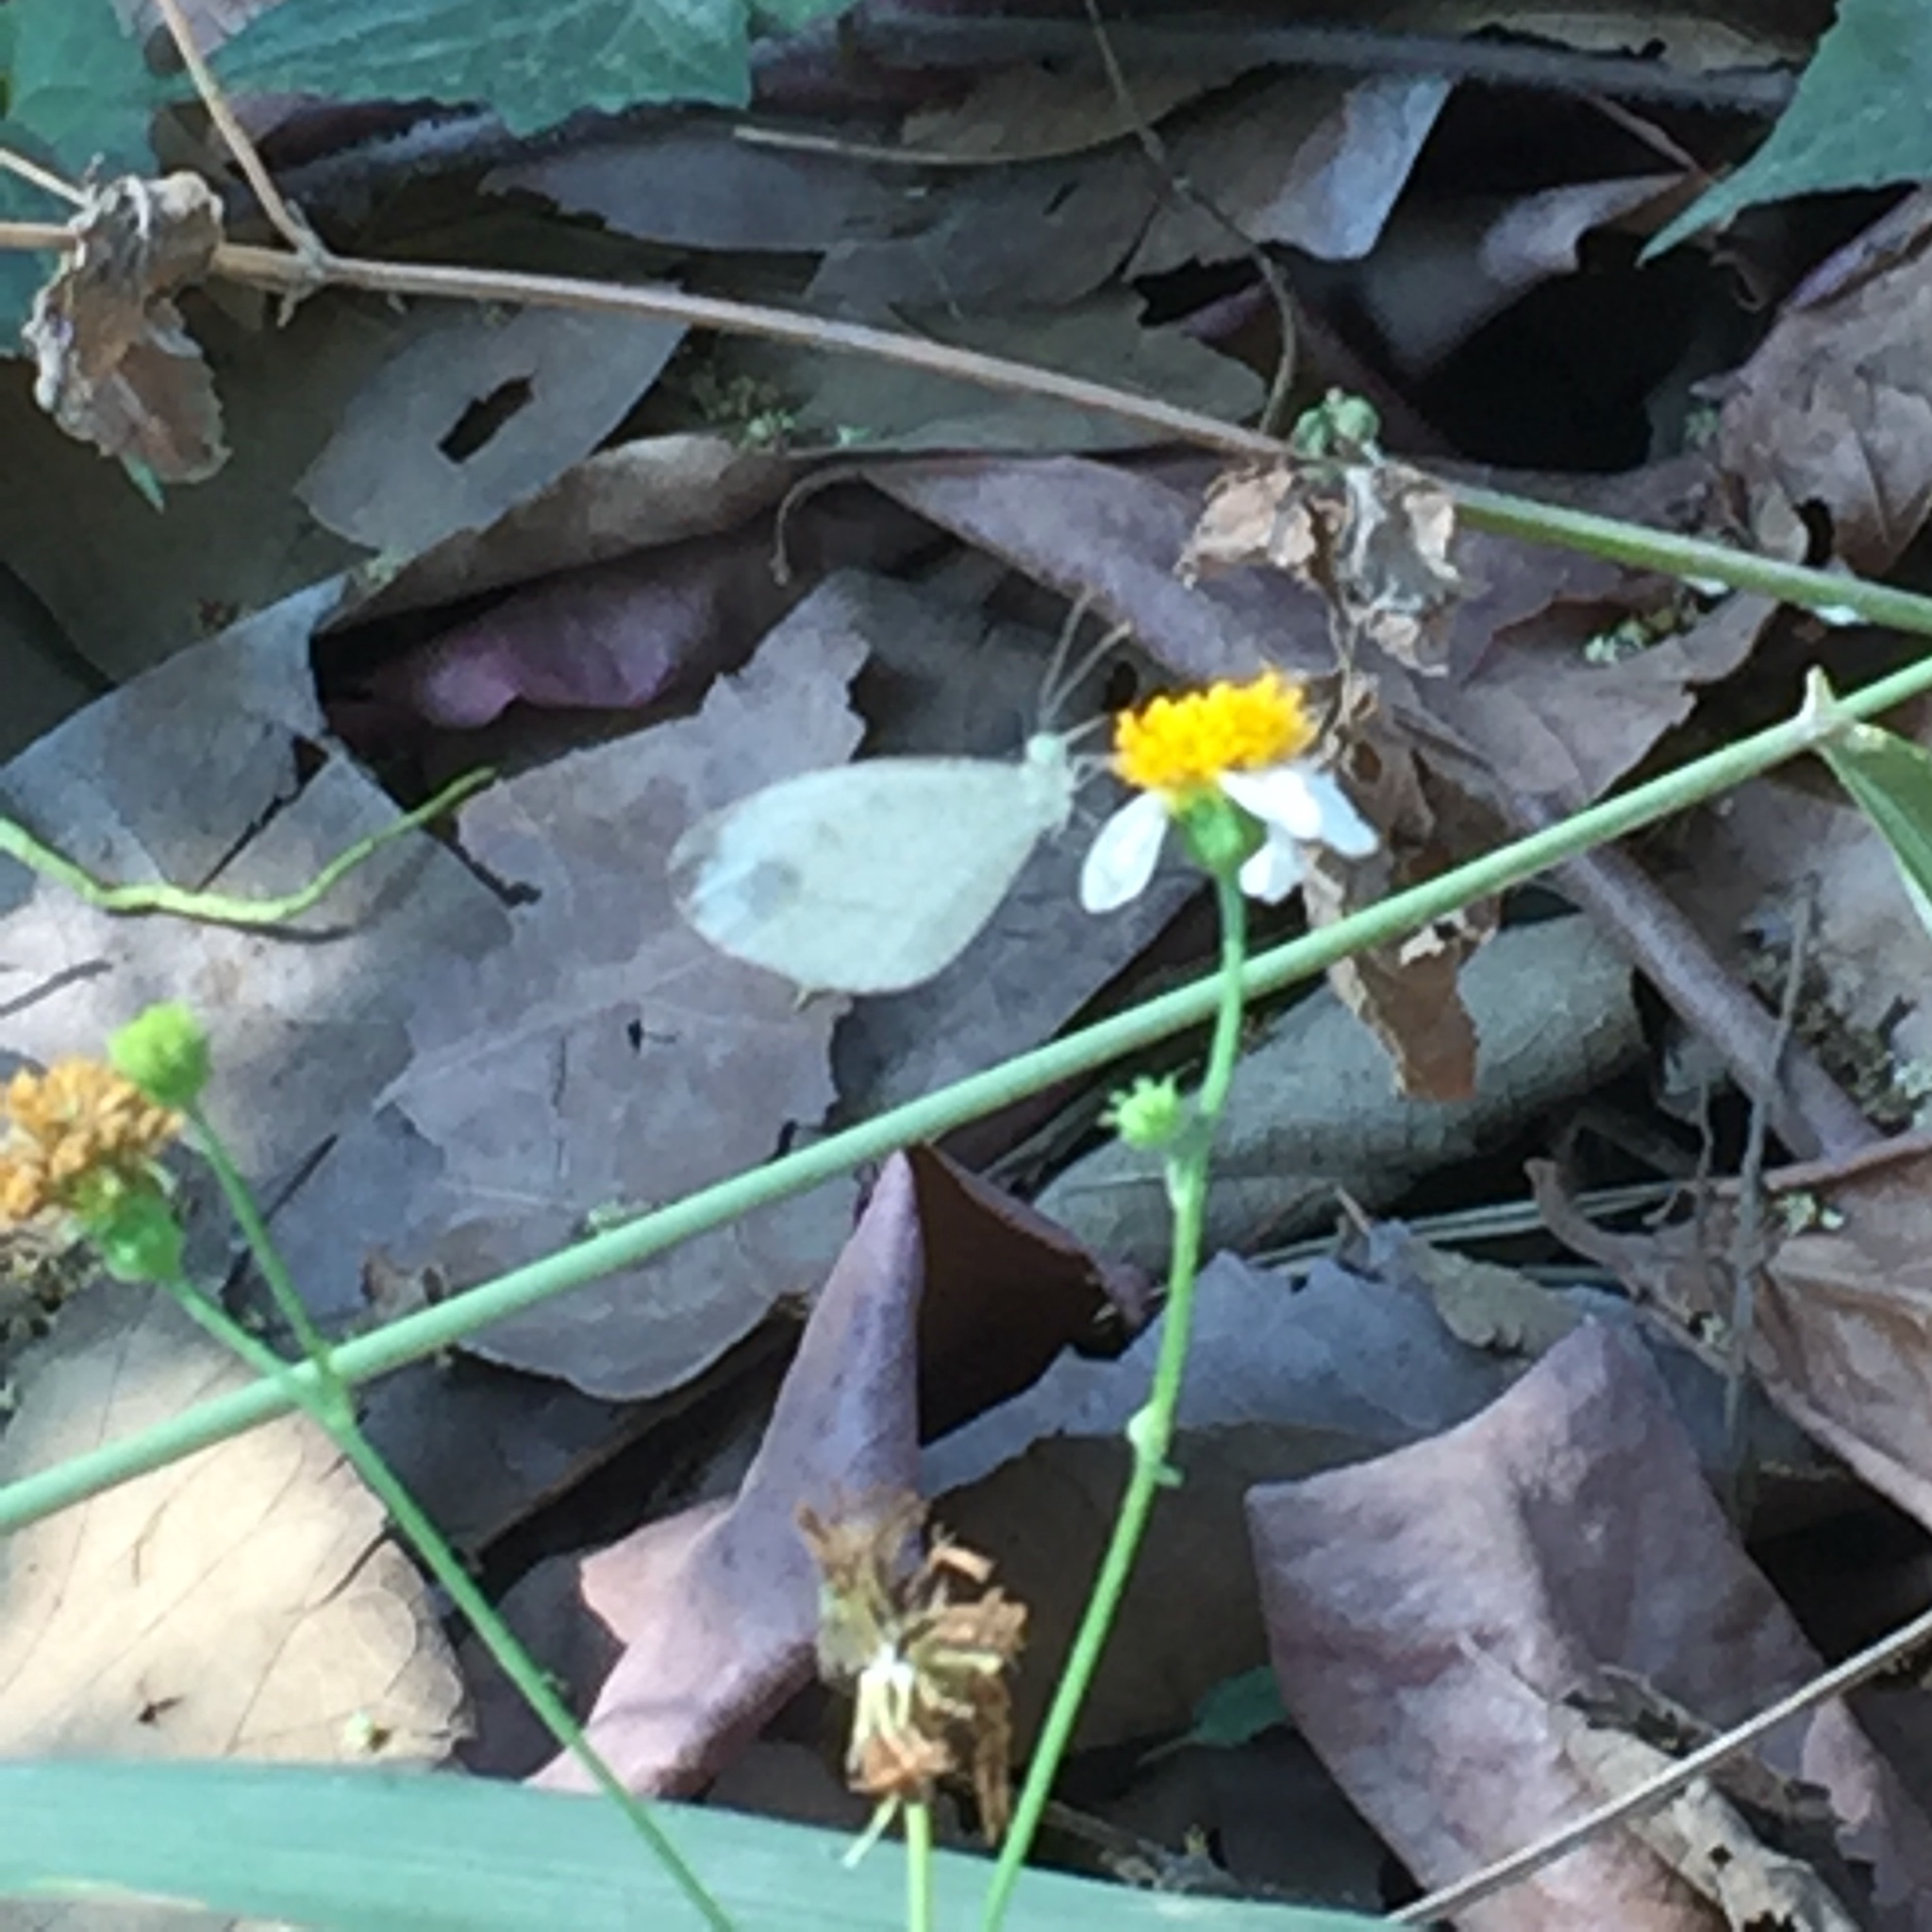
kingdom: Animalia
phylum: Arthropoda
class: Insecta
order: Lepidoptera
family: Pieridae
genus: Leptosia
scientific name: Leptosia nina
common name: Psyche
